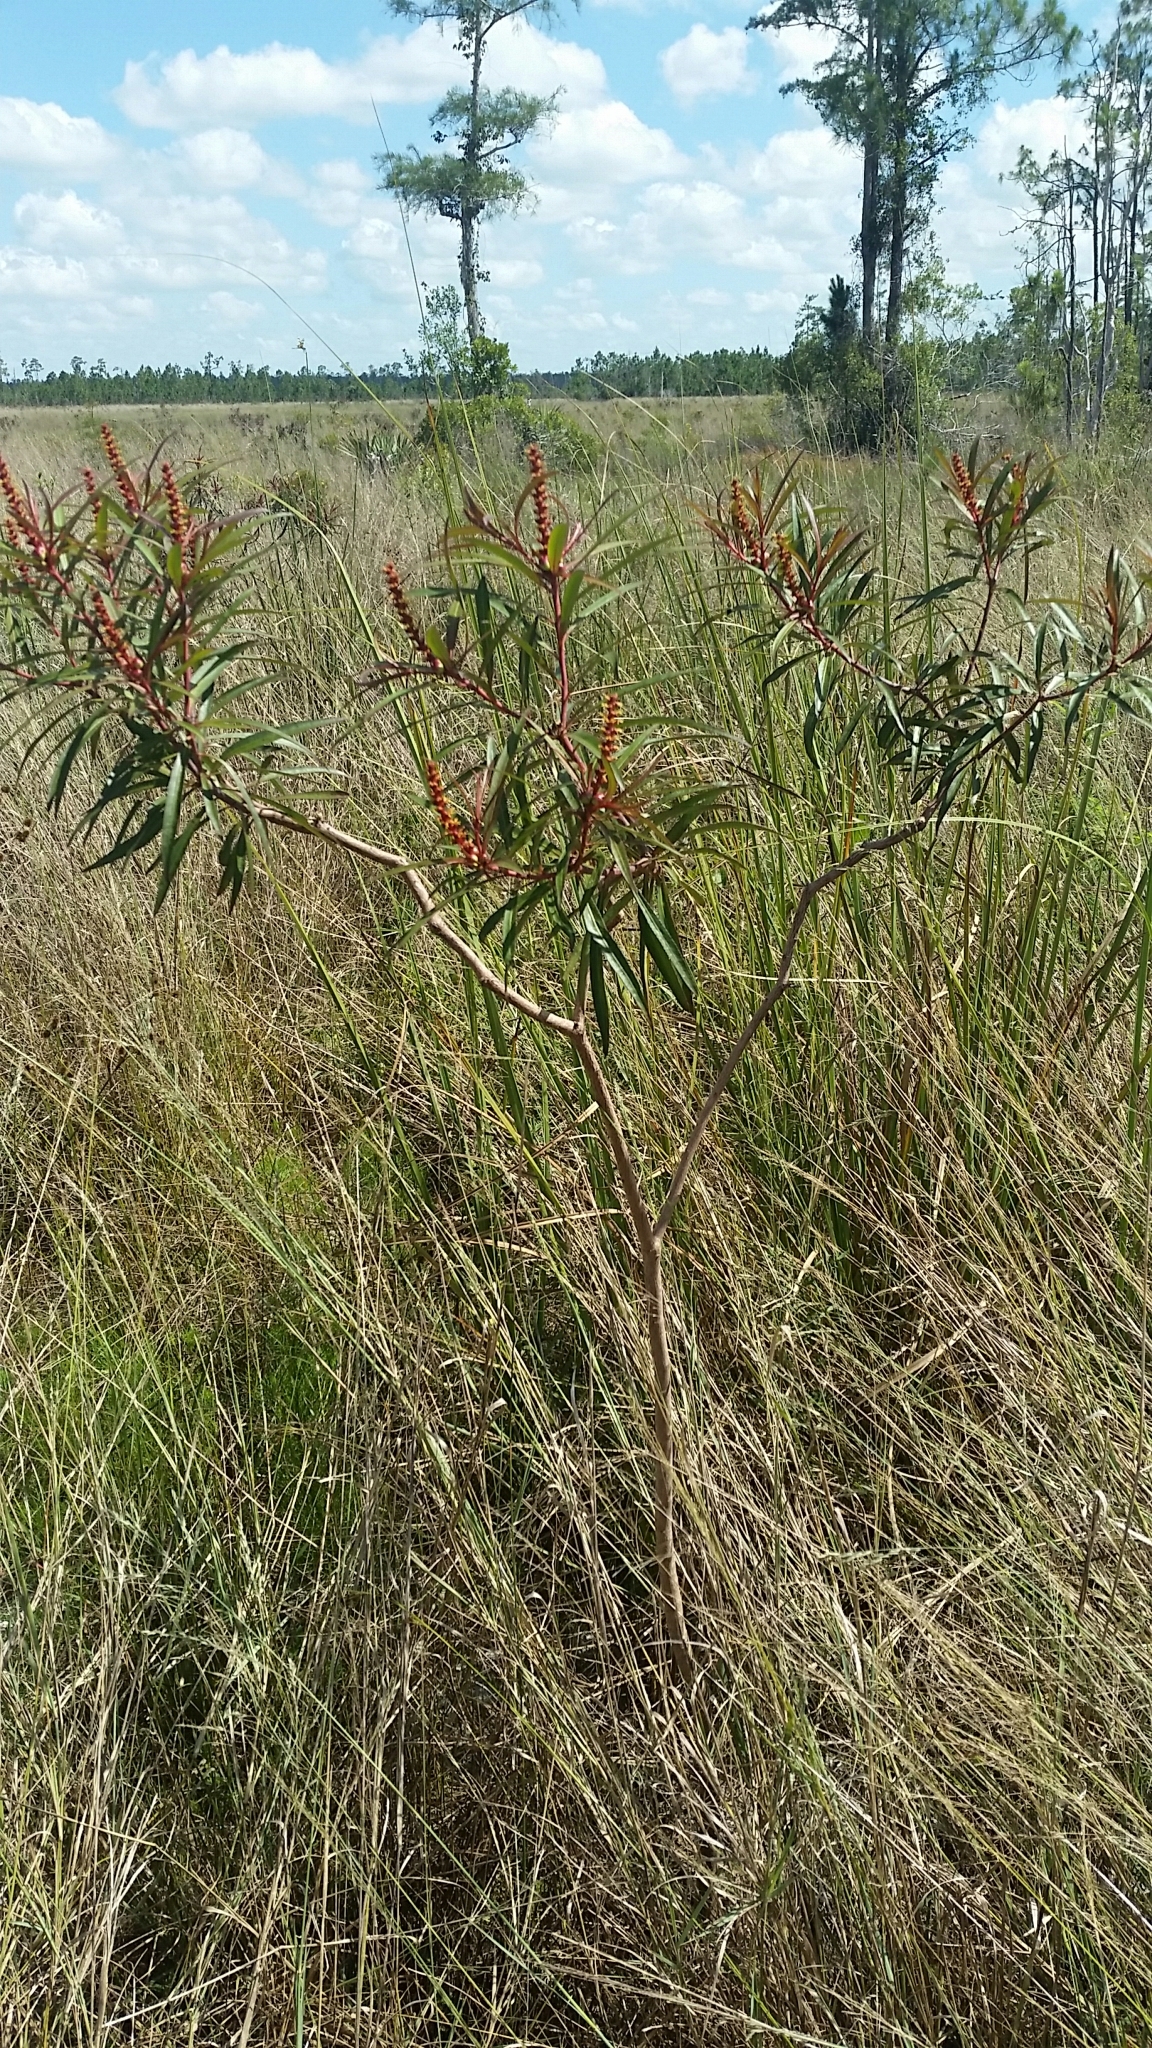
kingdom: Plantae
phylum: Tracheophyta
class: Magnoliopsida
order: Malpighiales
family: Euphorbiaceae
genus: Stillingia
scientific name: Stillingia aquatica
